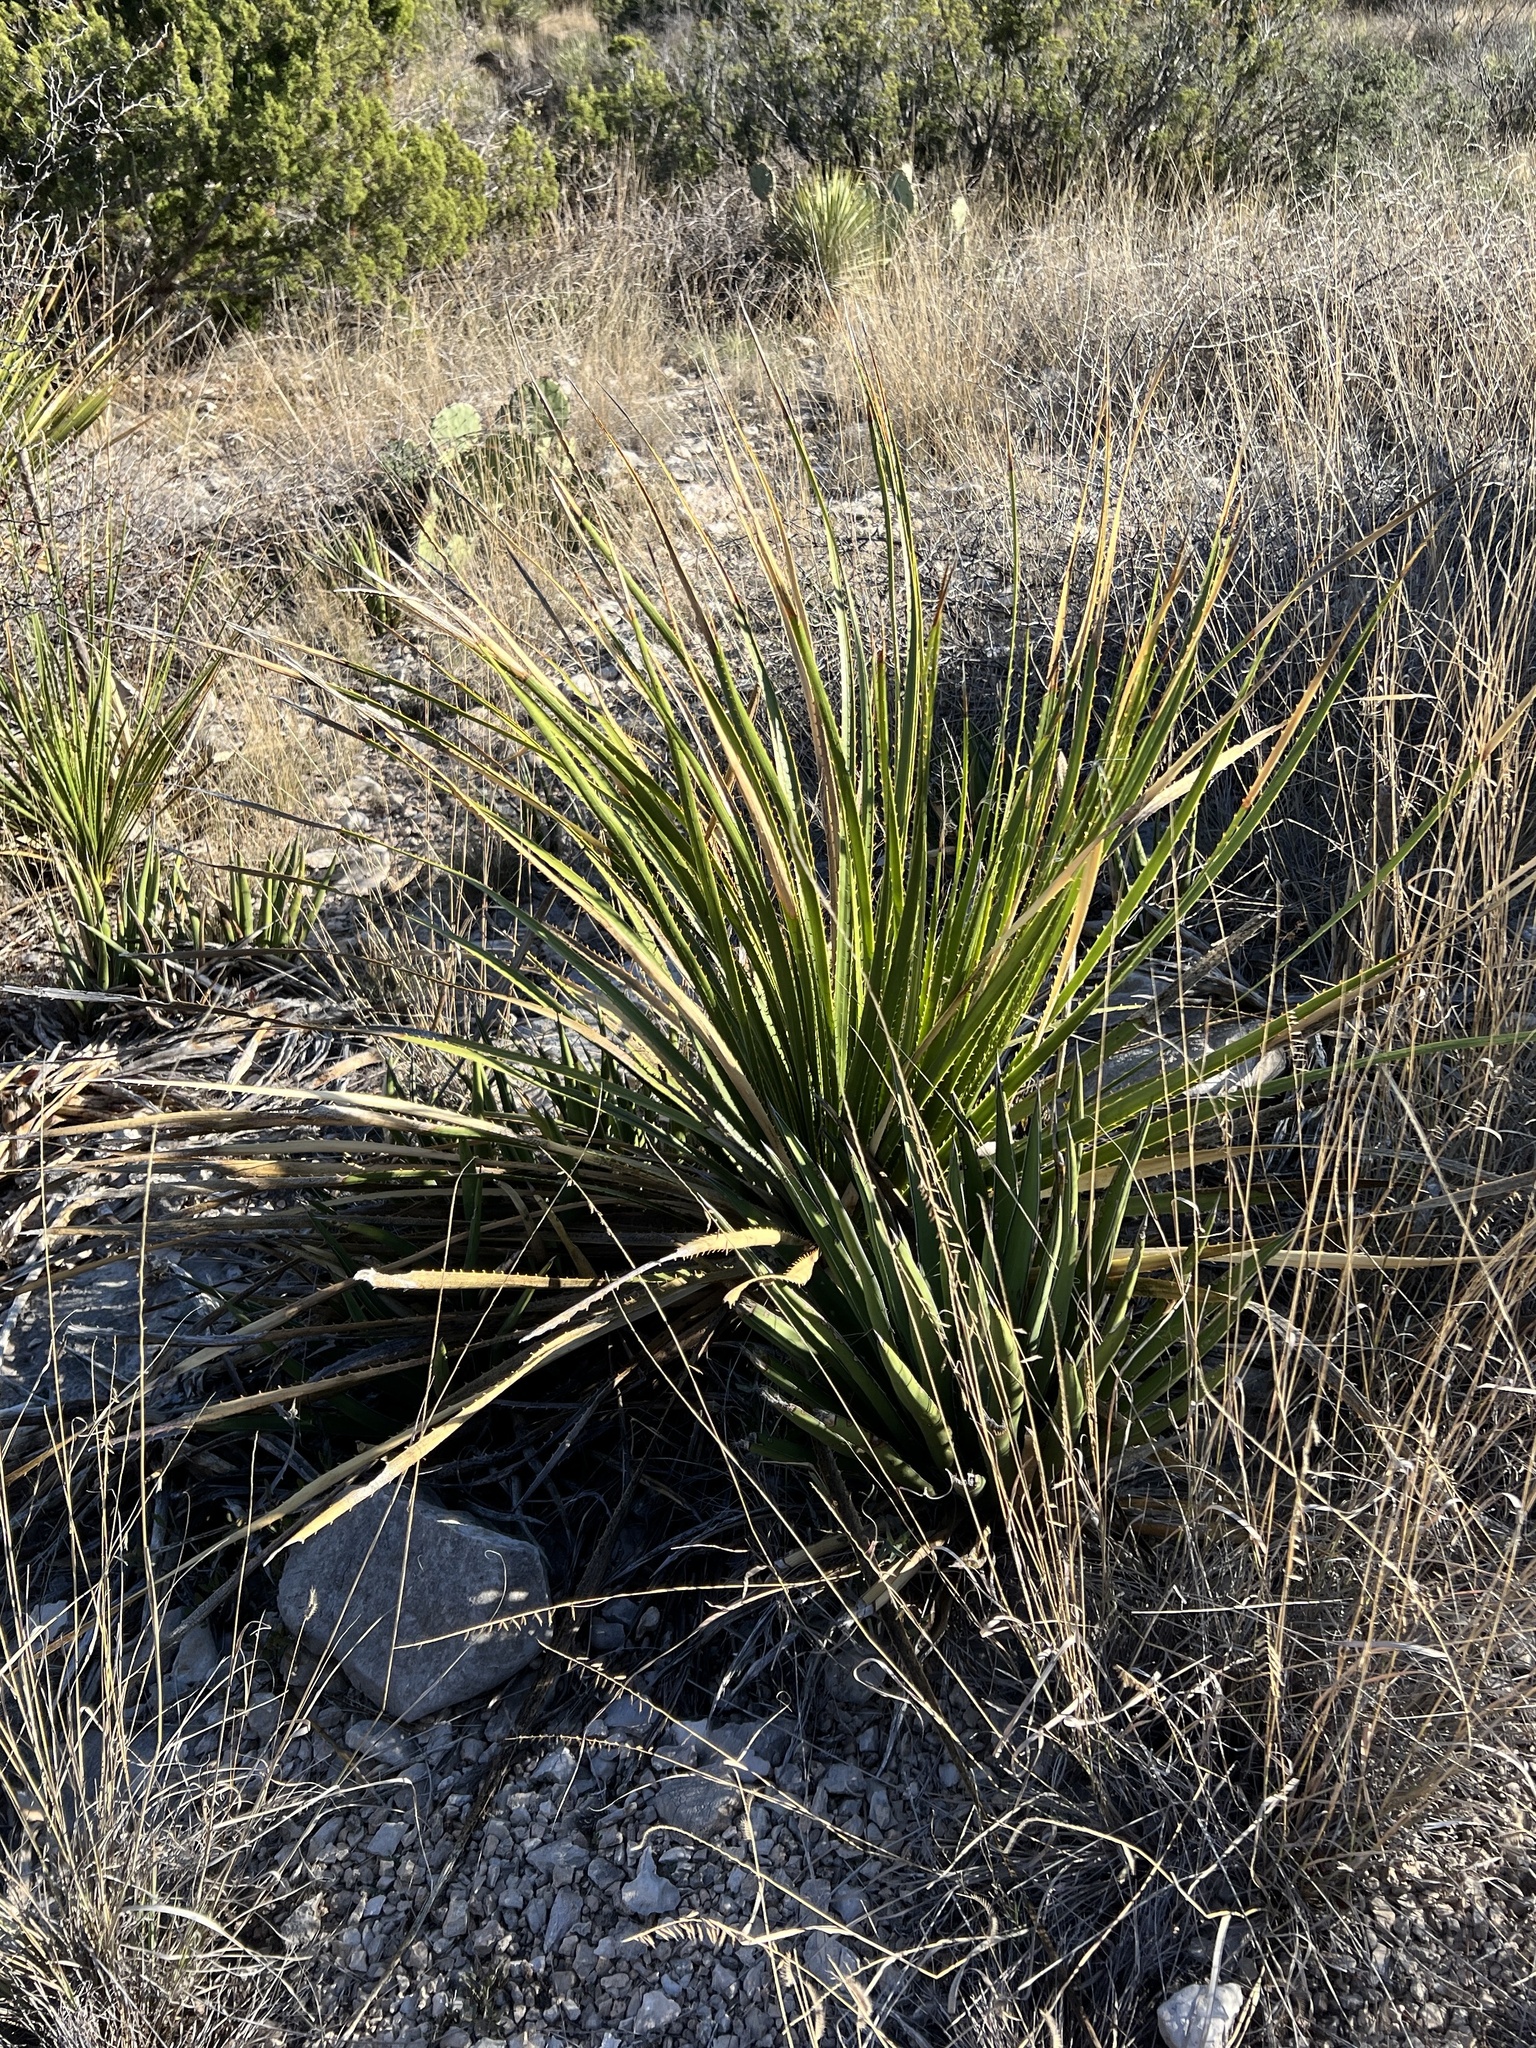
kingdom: Plantae
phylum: Tracheophyta
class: Liliopsida
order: Asparagales
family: Asparagaceae
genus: Dasylirion
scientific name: Dasylirion texanum
